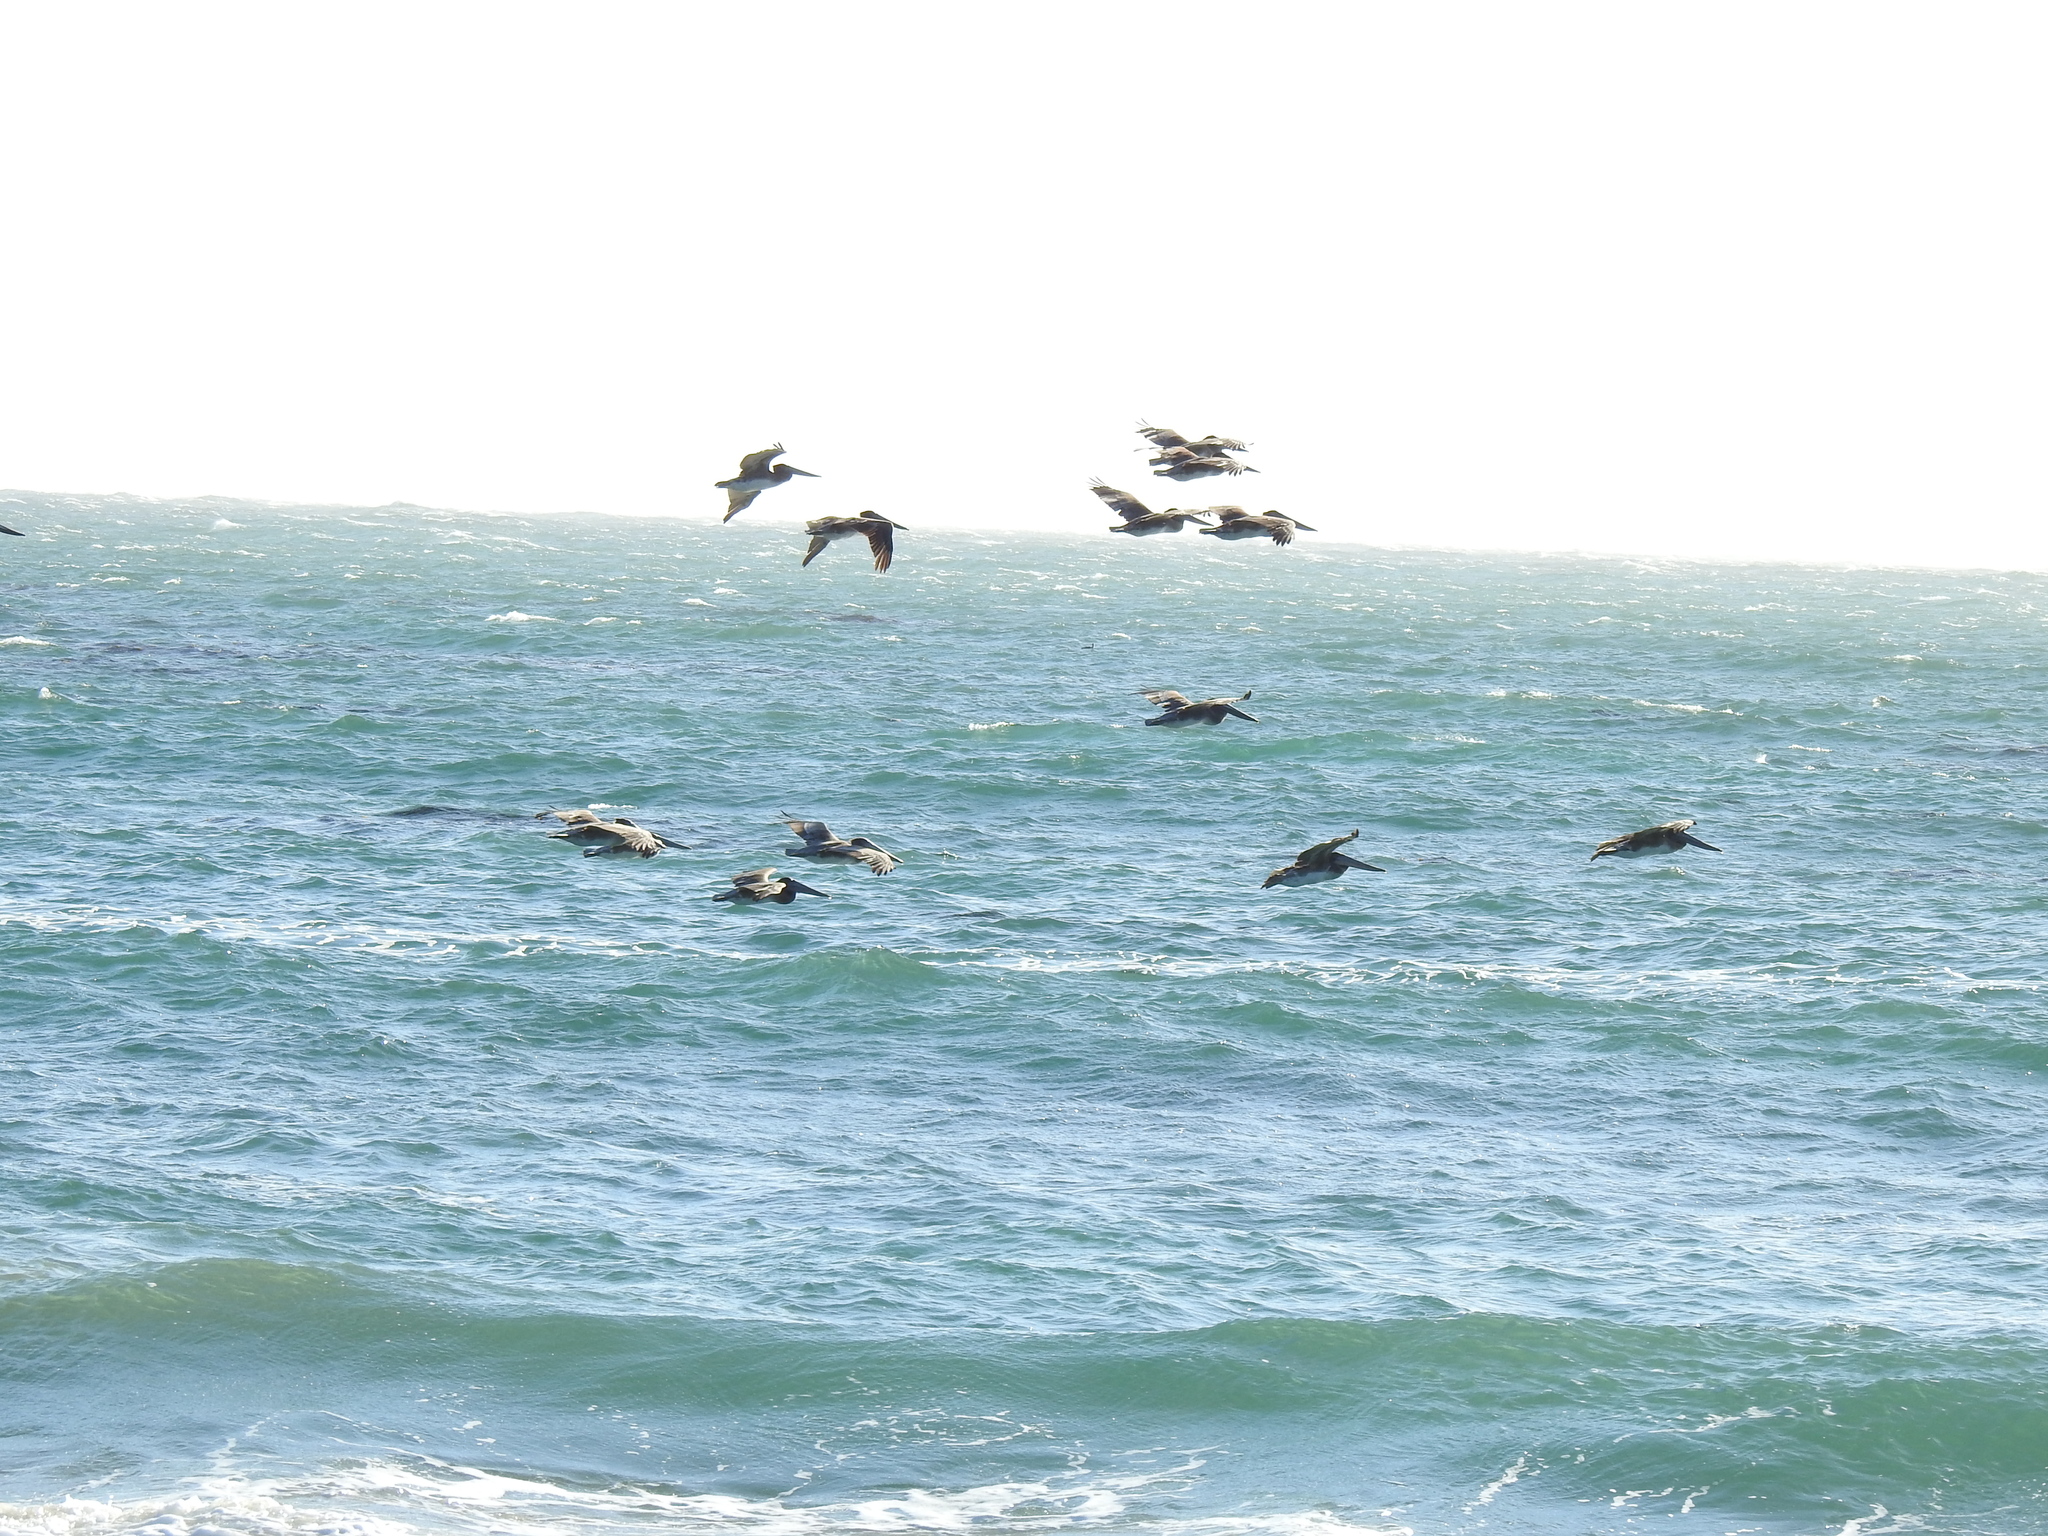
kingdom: Animalia
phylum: Chordata
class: Aves
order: Pelecaniformes
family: Pelecanidae
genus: Pelecanus
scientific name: Pelecanus occidentalis
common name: Brown pelican
